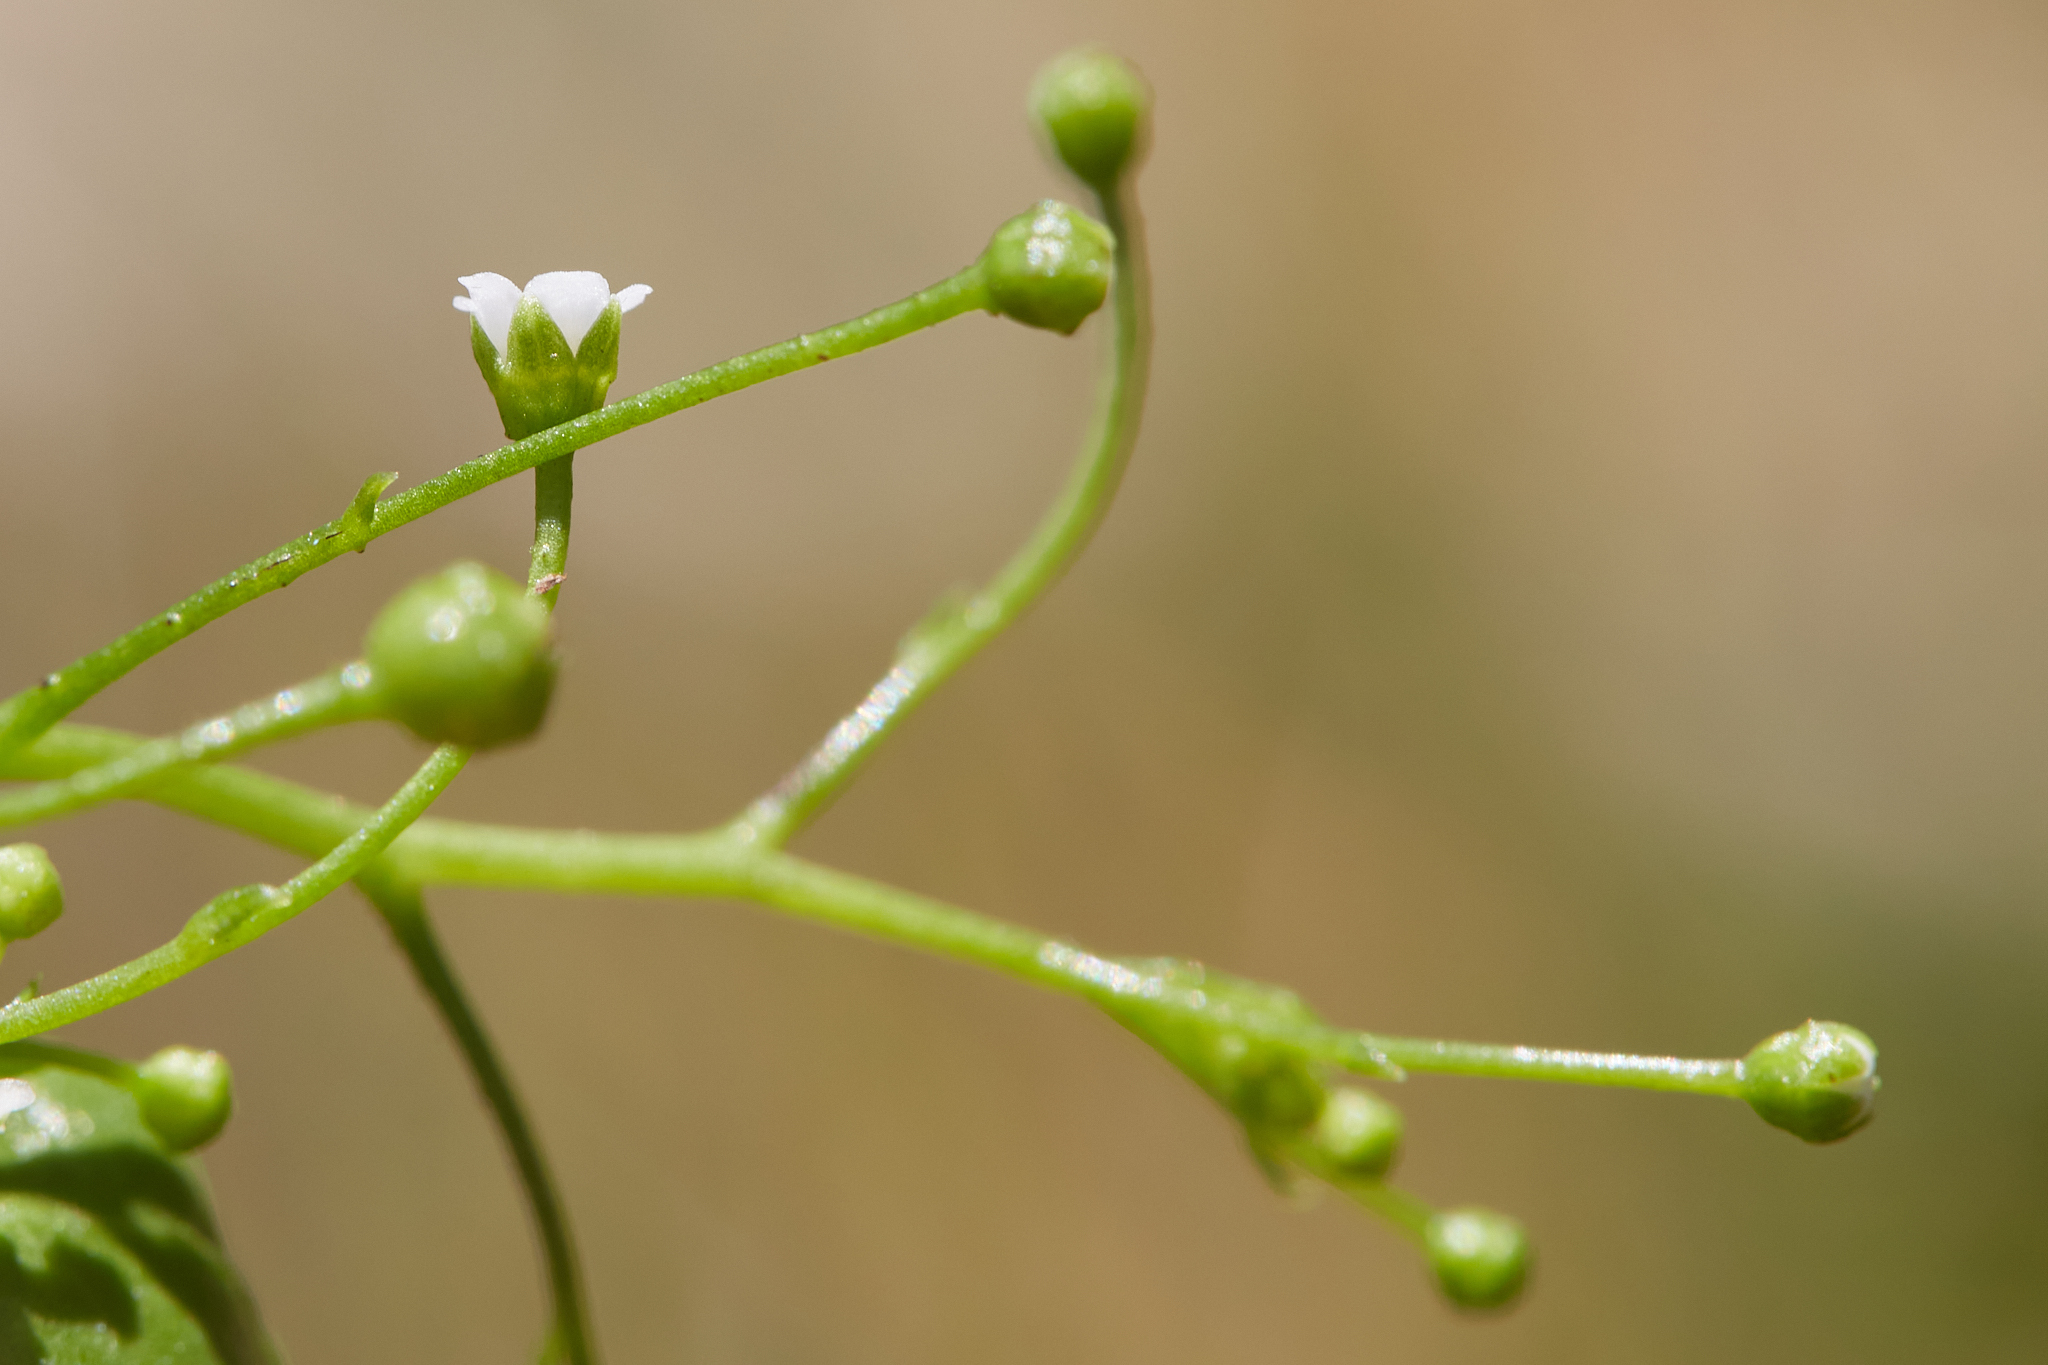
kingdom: Plantae
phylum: Tracheophyta
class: Magnoliopsida
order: Ericales
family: Primulaceae
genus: Samolus
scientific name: Samolus parviflorus
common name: False water pimpernel
